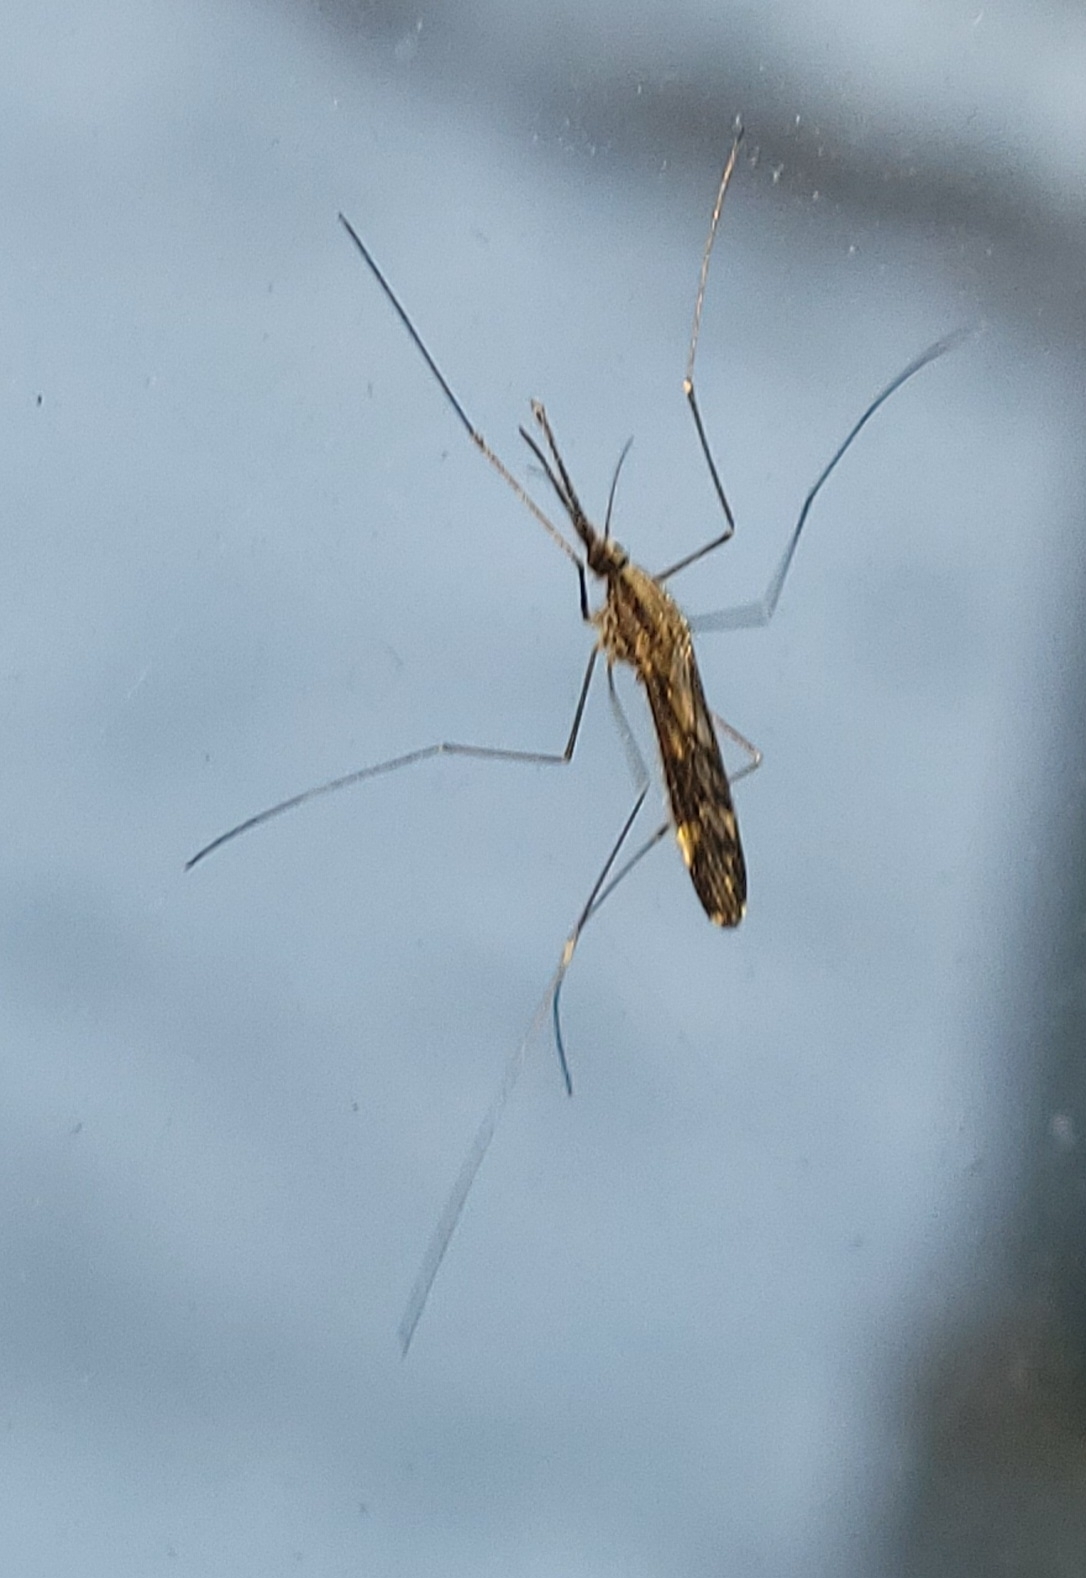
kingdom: Animalia
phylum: Arthropoda
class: Insecta
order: Diptera
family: Culicidae
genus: Anopheles
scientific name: Anopheles punctipennis
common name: Woodland malaria mosquito
